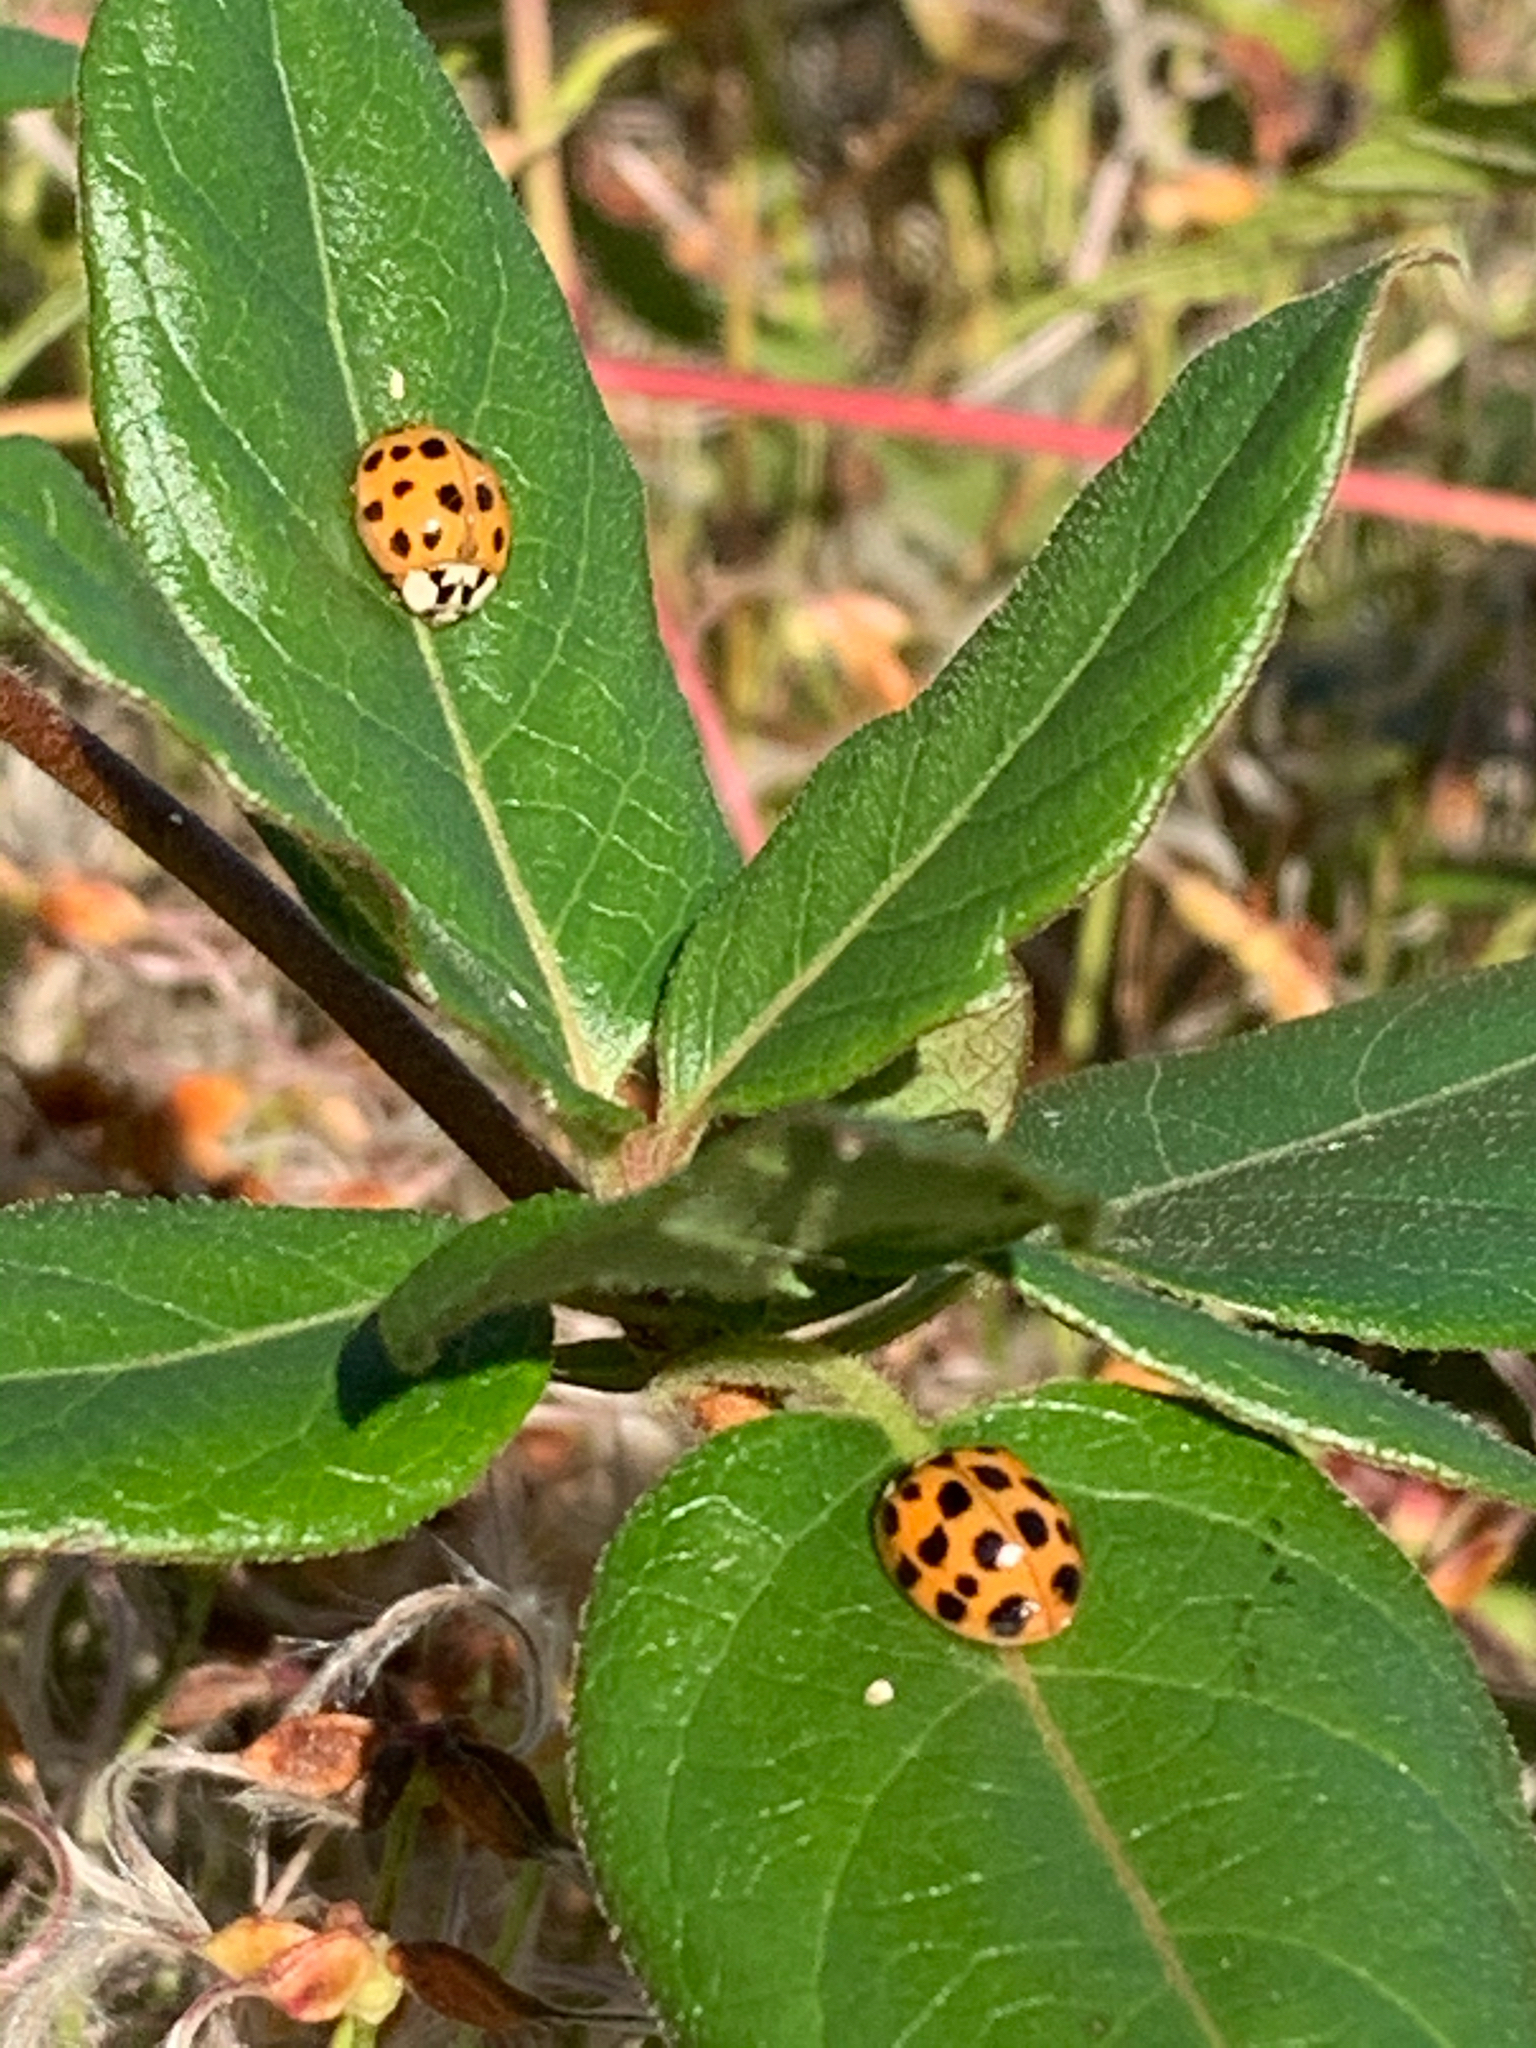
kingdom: Animalia
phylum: Arthropoda
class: Insecta
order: Coleoptera
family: Coccinellidae
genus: Harmonia
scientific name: Harmonia axyridis
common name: Harlequin ladybird
